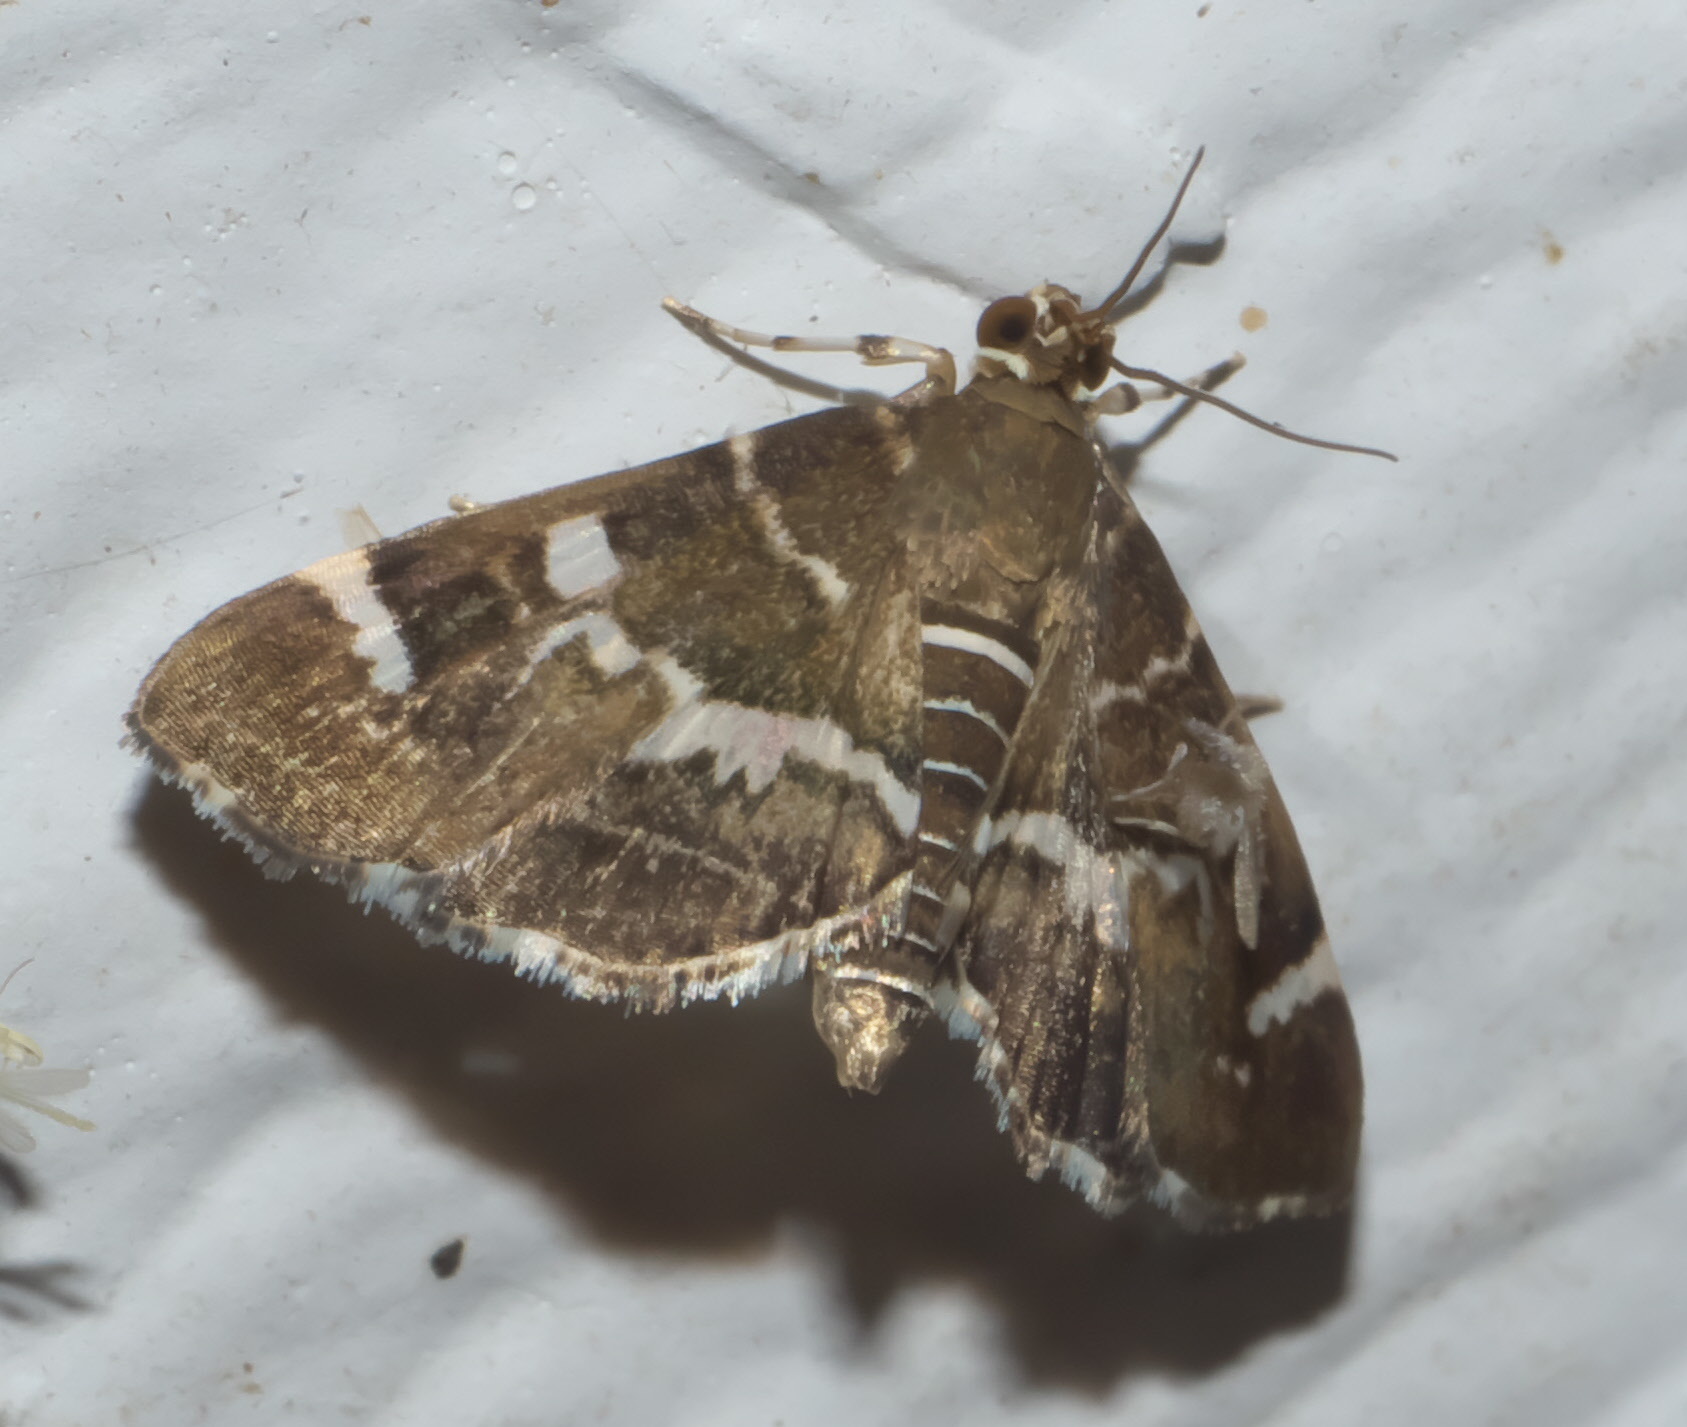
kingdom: Animalia
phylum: Arthropoda
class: Insecta
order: Lepidoptera
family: Crambidae
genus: Hymenia
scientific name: Hymenia perspectalis
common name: Spotted beet webworm
